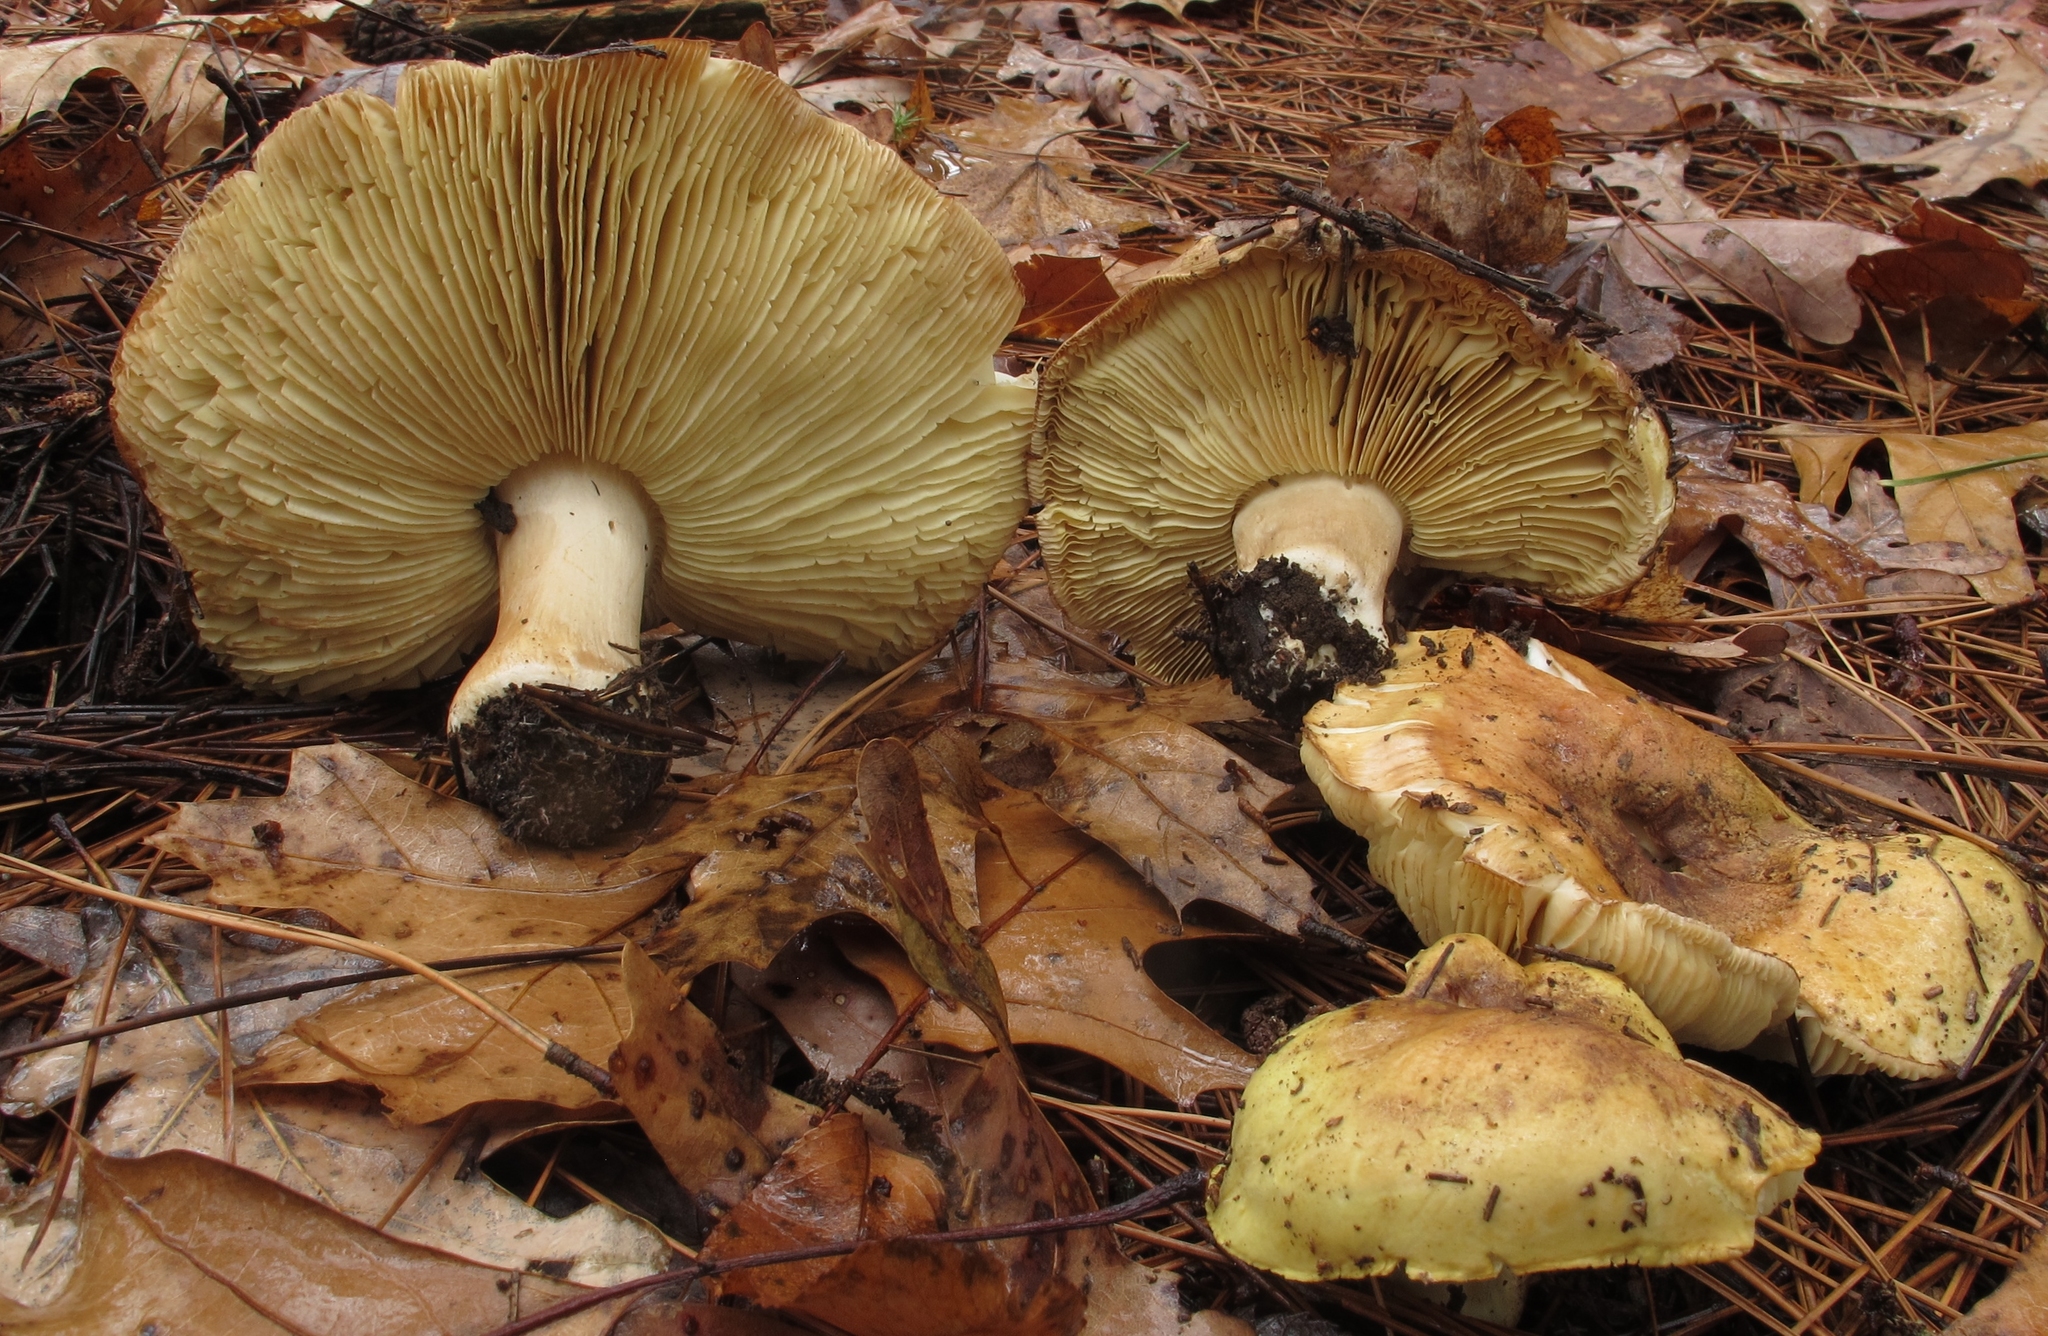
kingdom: Fungi
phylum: Basidiomycota
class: Agaricomycetes
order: Agaricales
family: Tricholomataceae
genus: Tricholoma
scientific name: Tricholoma equestre
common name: Yellow knight
